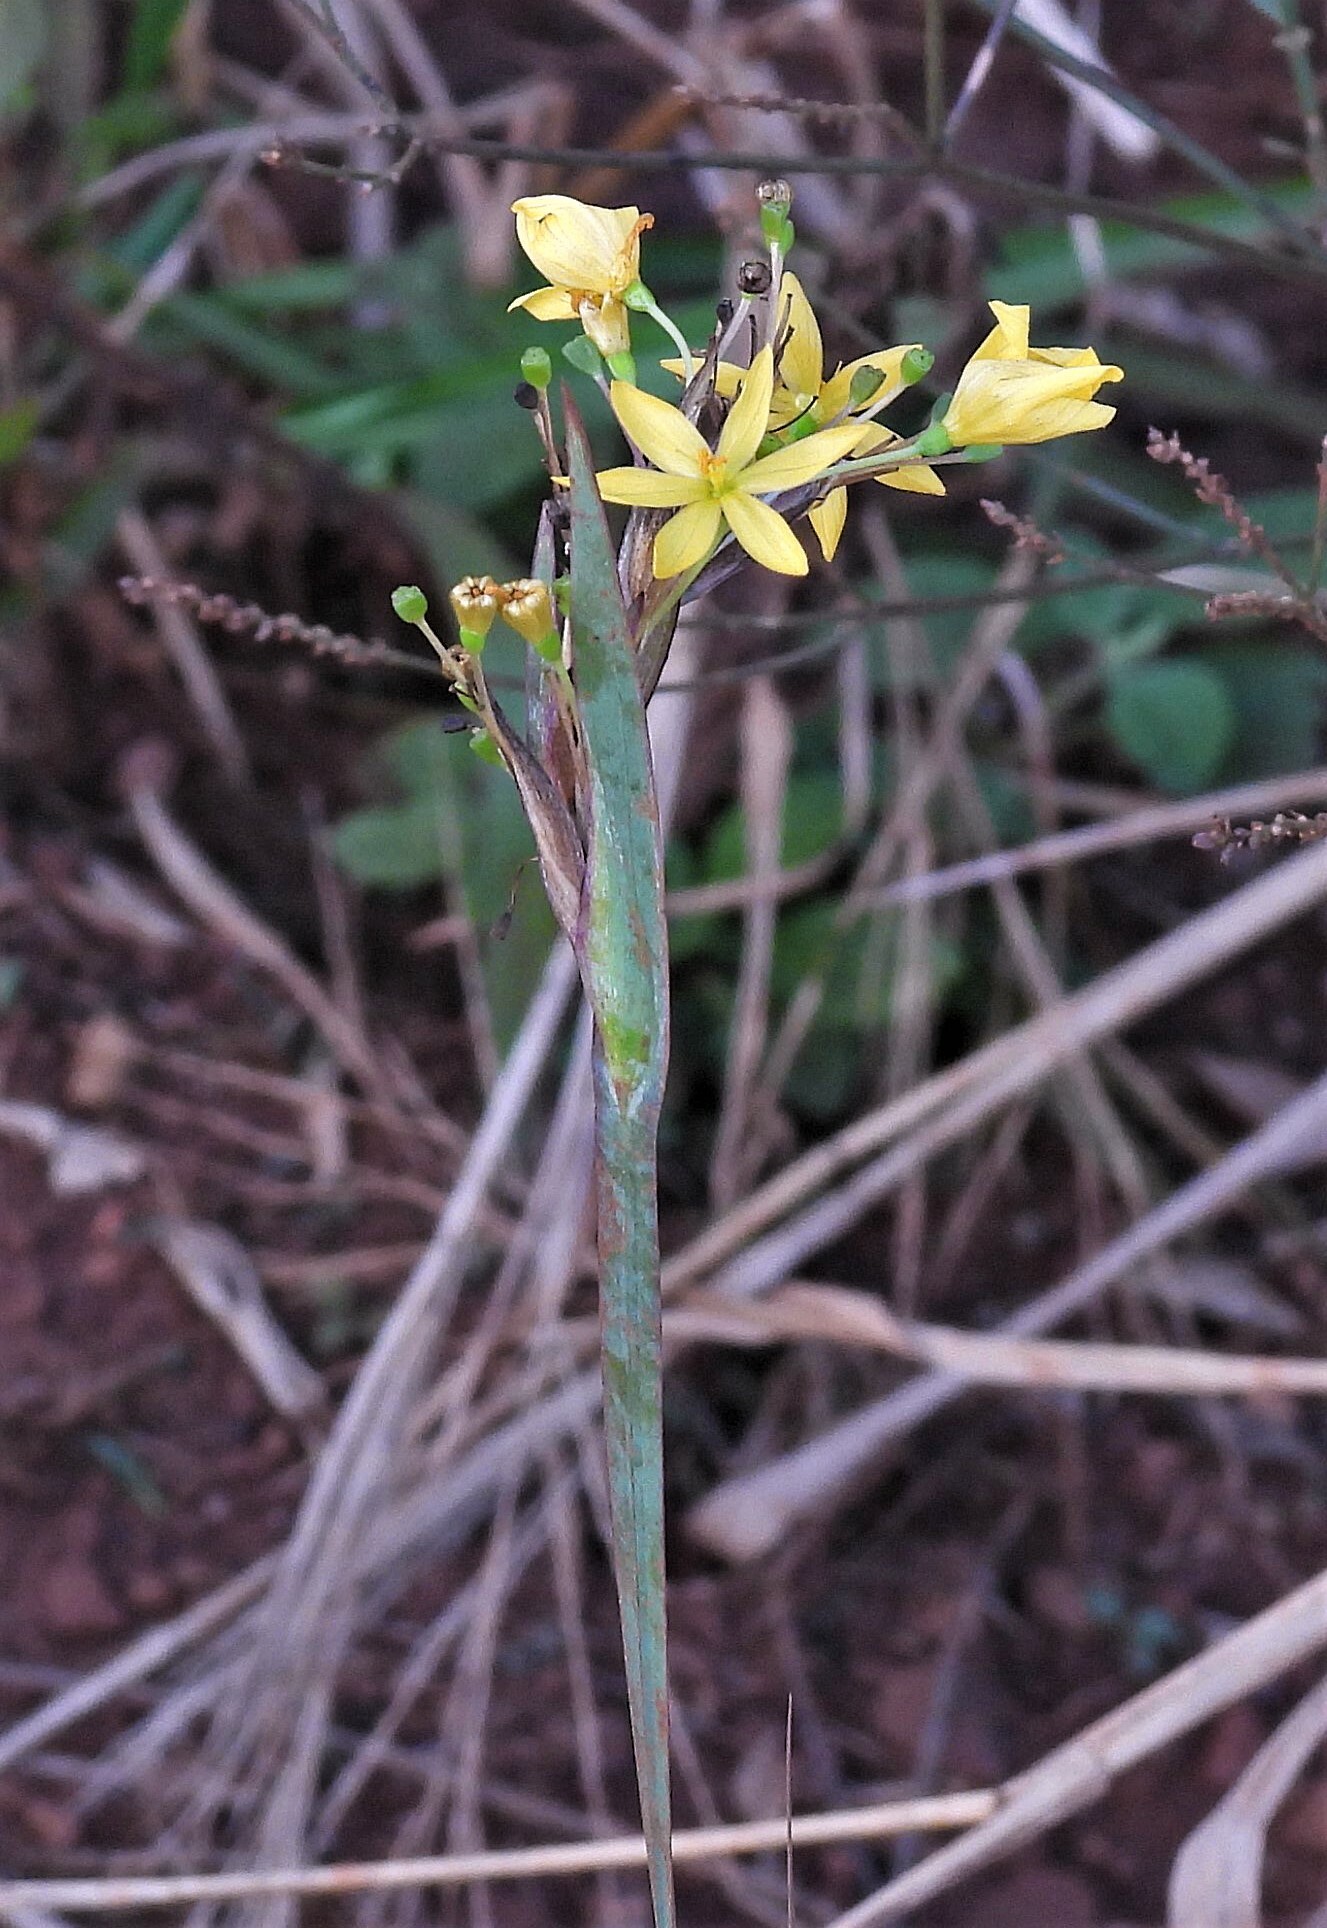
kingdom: Plantae
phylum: Tracheophyta
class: Liliopsida
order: Asparagales
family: Iridaceae
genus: Sisyrinchium
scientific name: Sisyrinchium palmifolium
